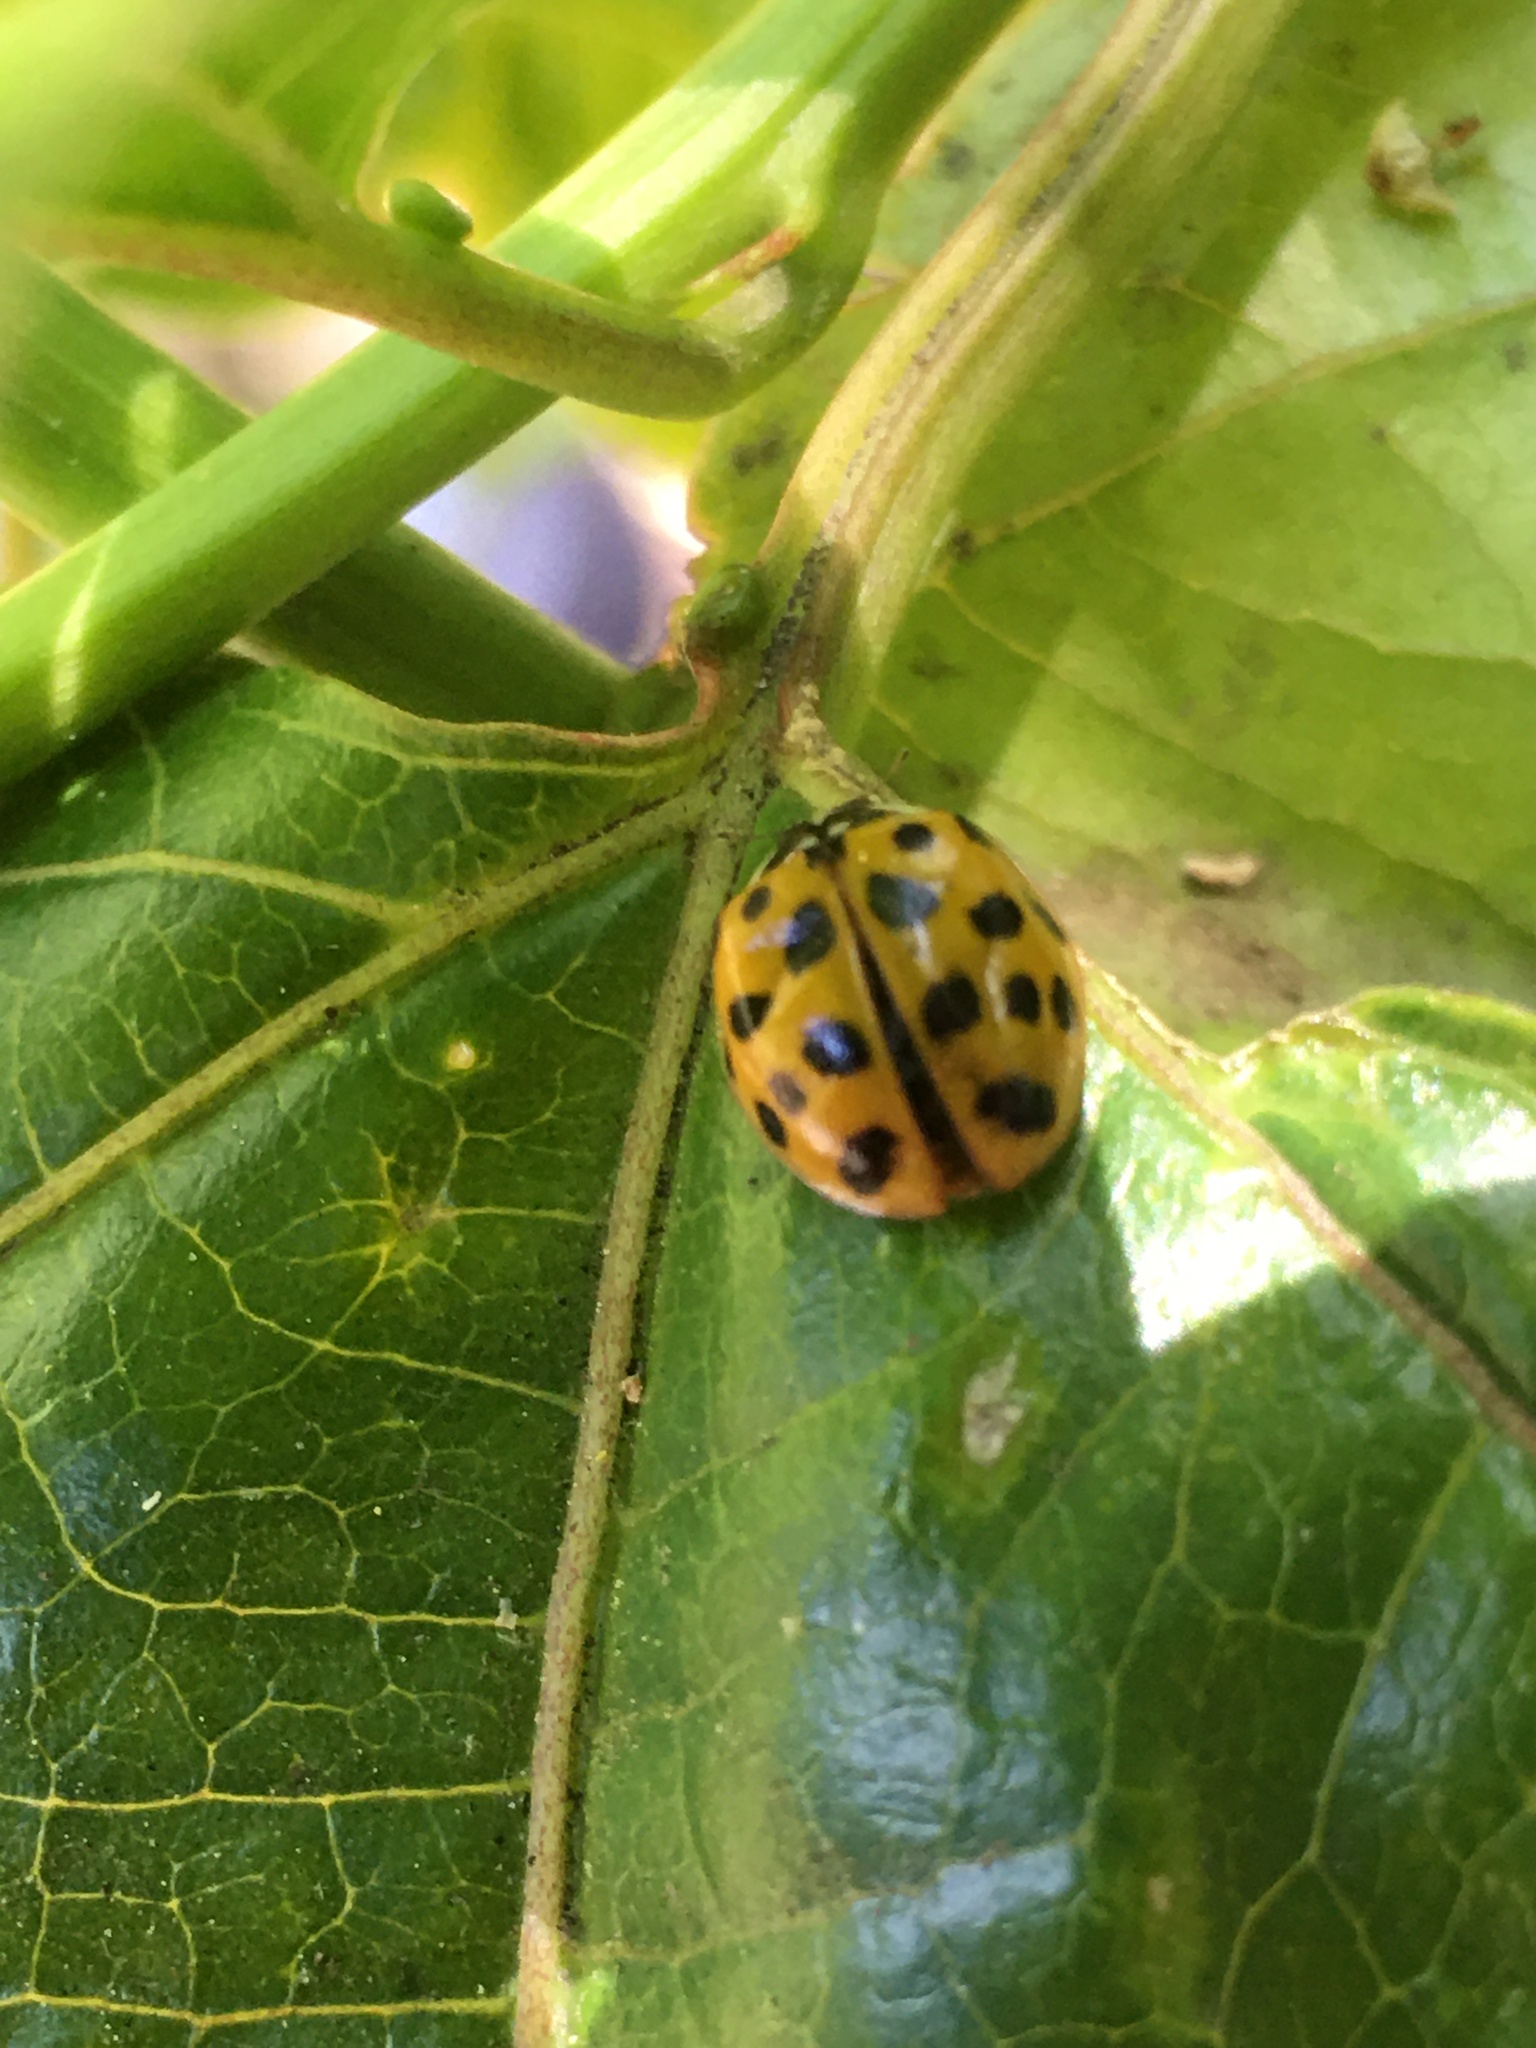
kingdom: Animalia
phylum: Arthropoda
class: Insecta
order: Coleoptera
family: Coccinellidae
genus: Harmonia
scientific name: Harmonia axyridis
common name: Harlequin ladybird
